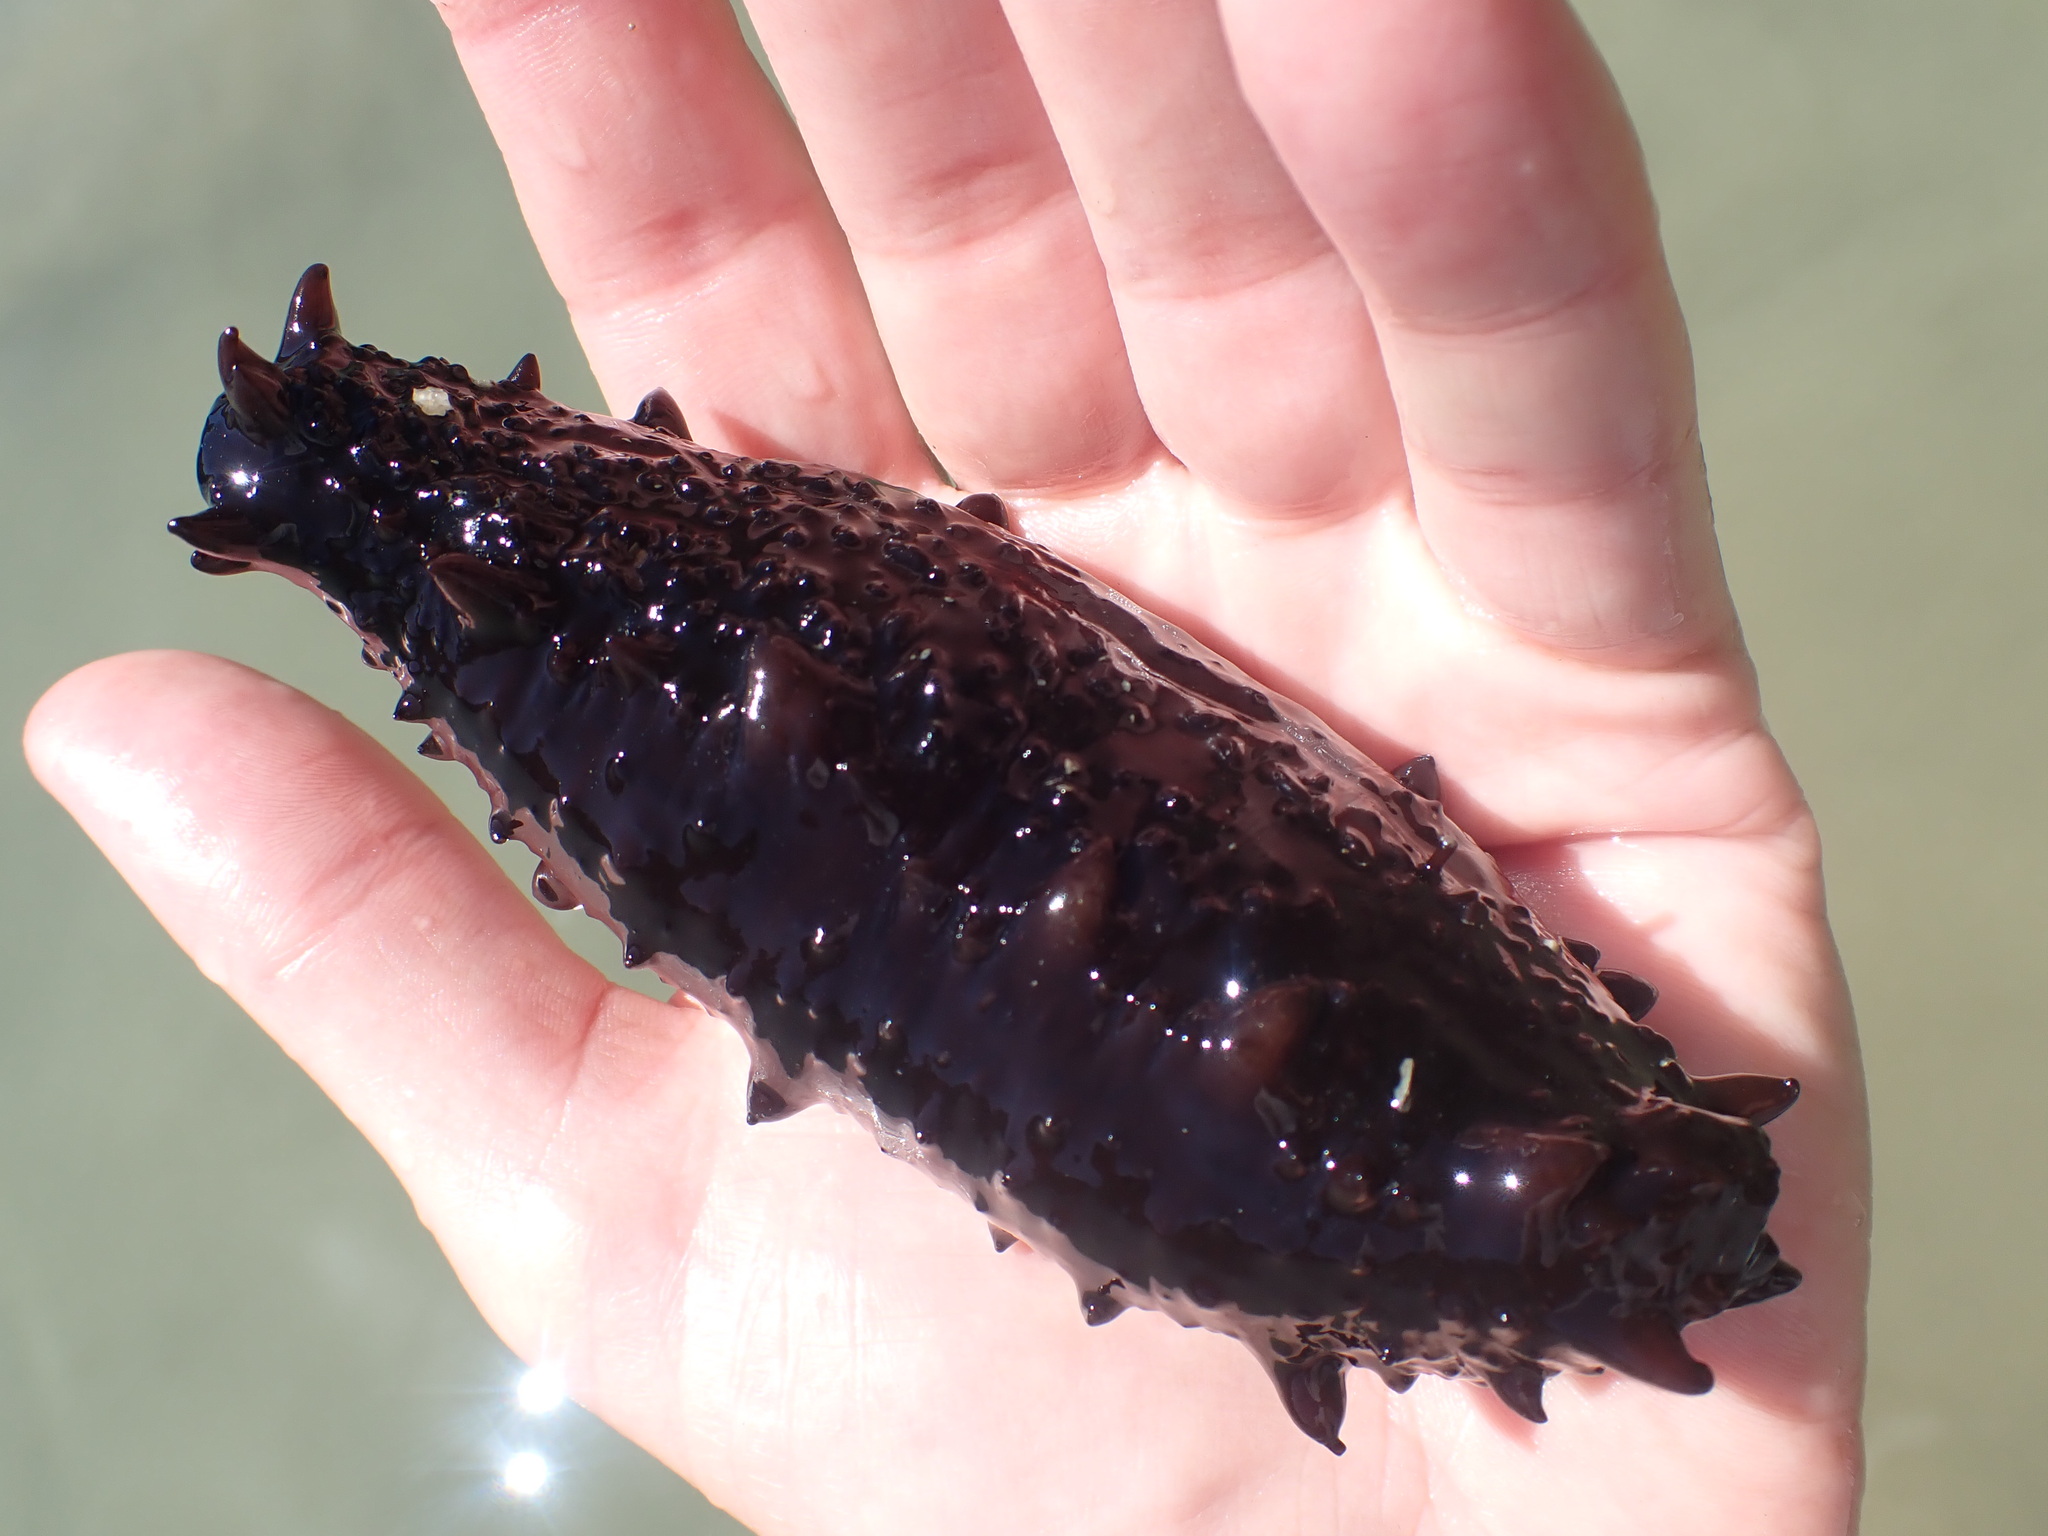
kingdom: Animalia
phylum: Echinodermata
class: Holothuroidea
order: Synallactida
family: Stichopodidae
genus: Australostichopus
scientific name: Australostichopus mollis
